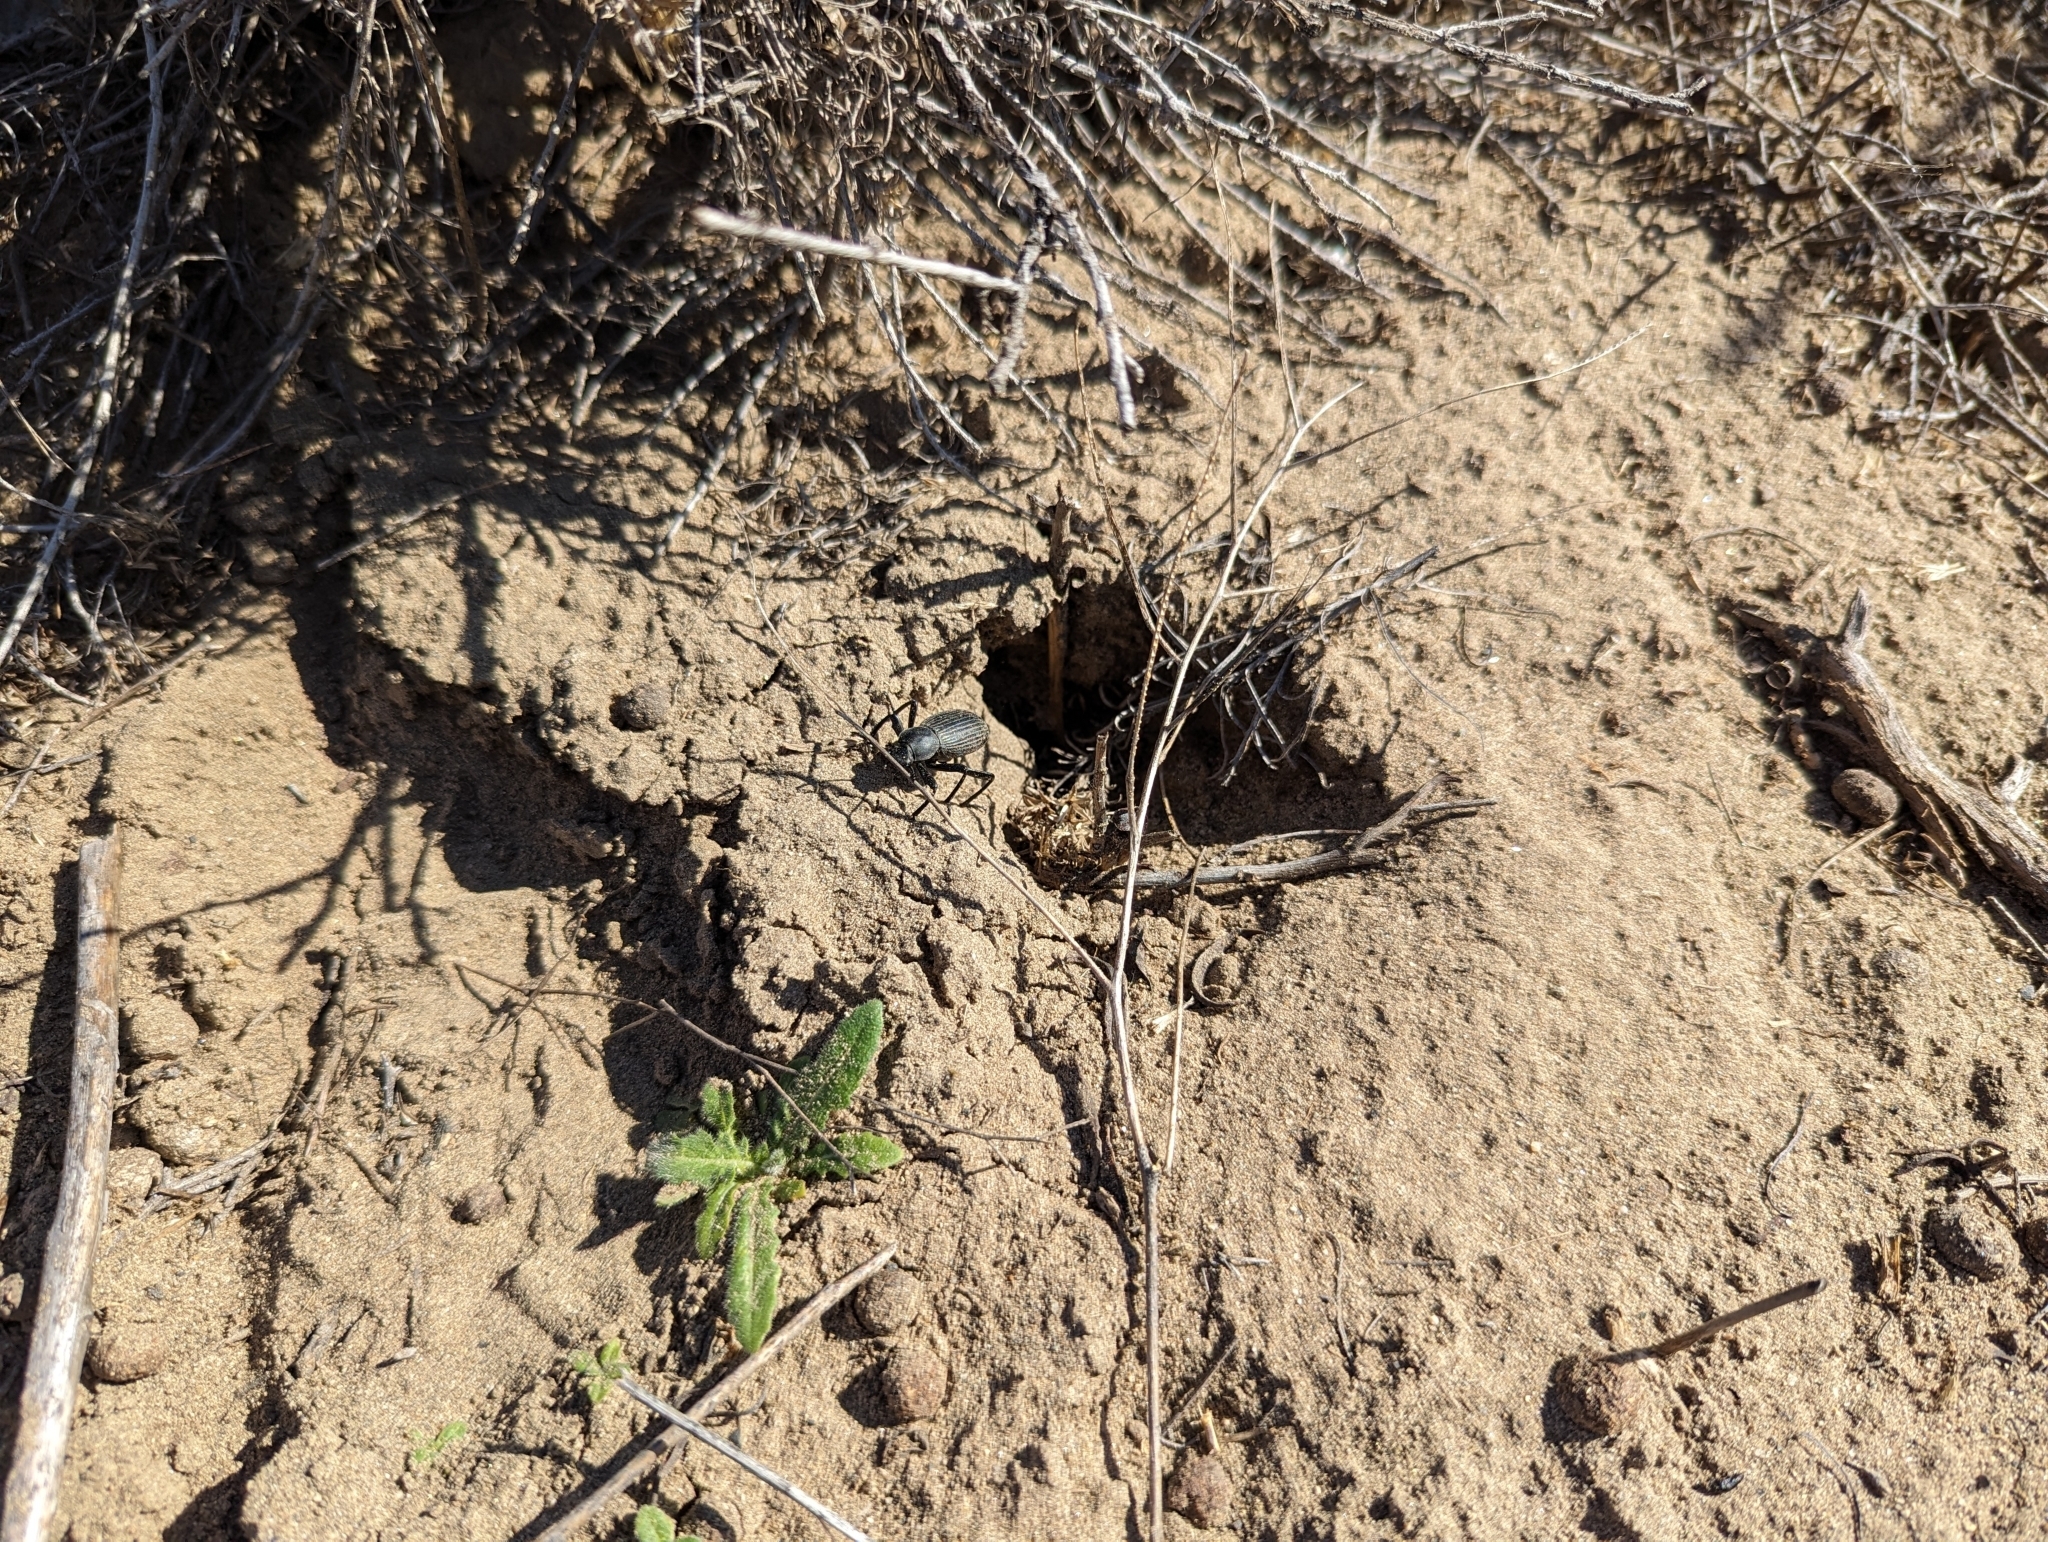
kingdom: Animalia
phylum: Arthropoda
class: Insecta
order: Coleoptera
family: Tenebrionidae
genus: Eleodes
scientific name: Eleodes hispilabris
